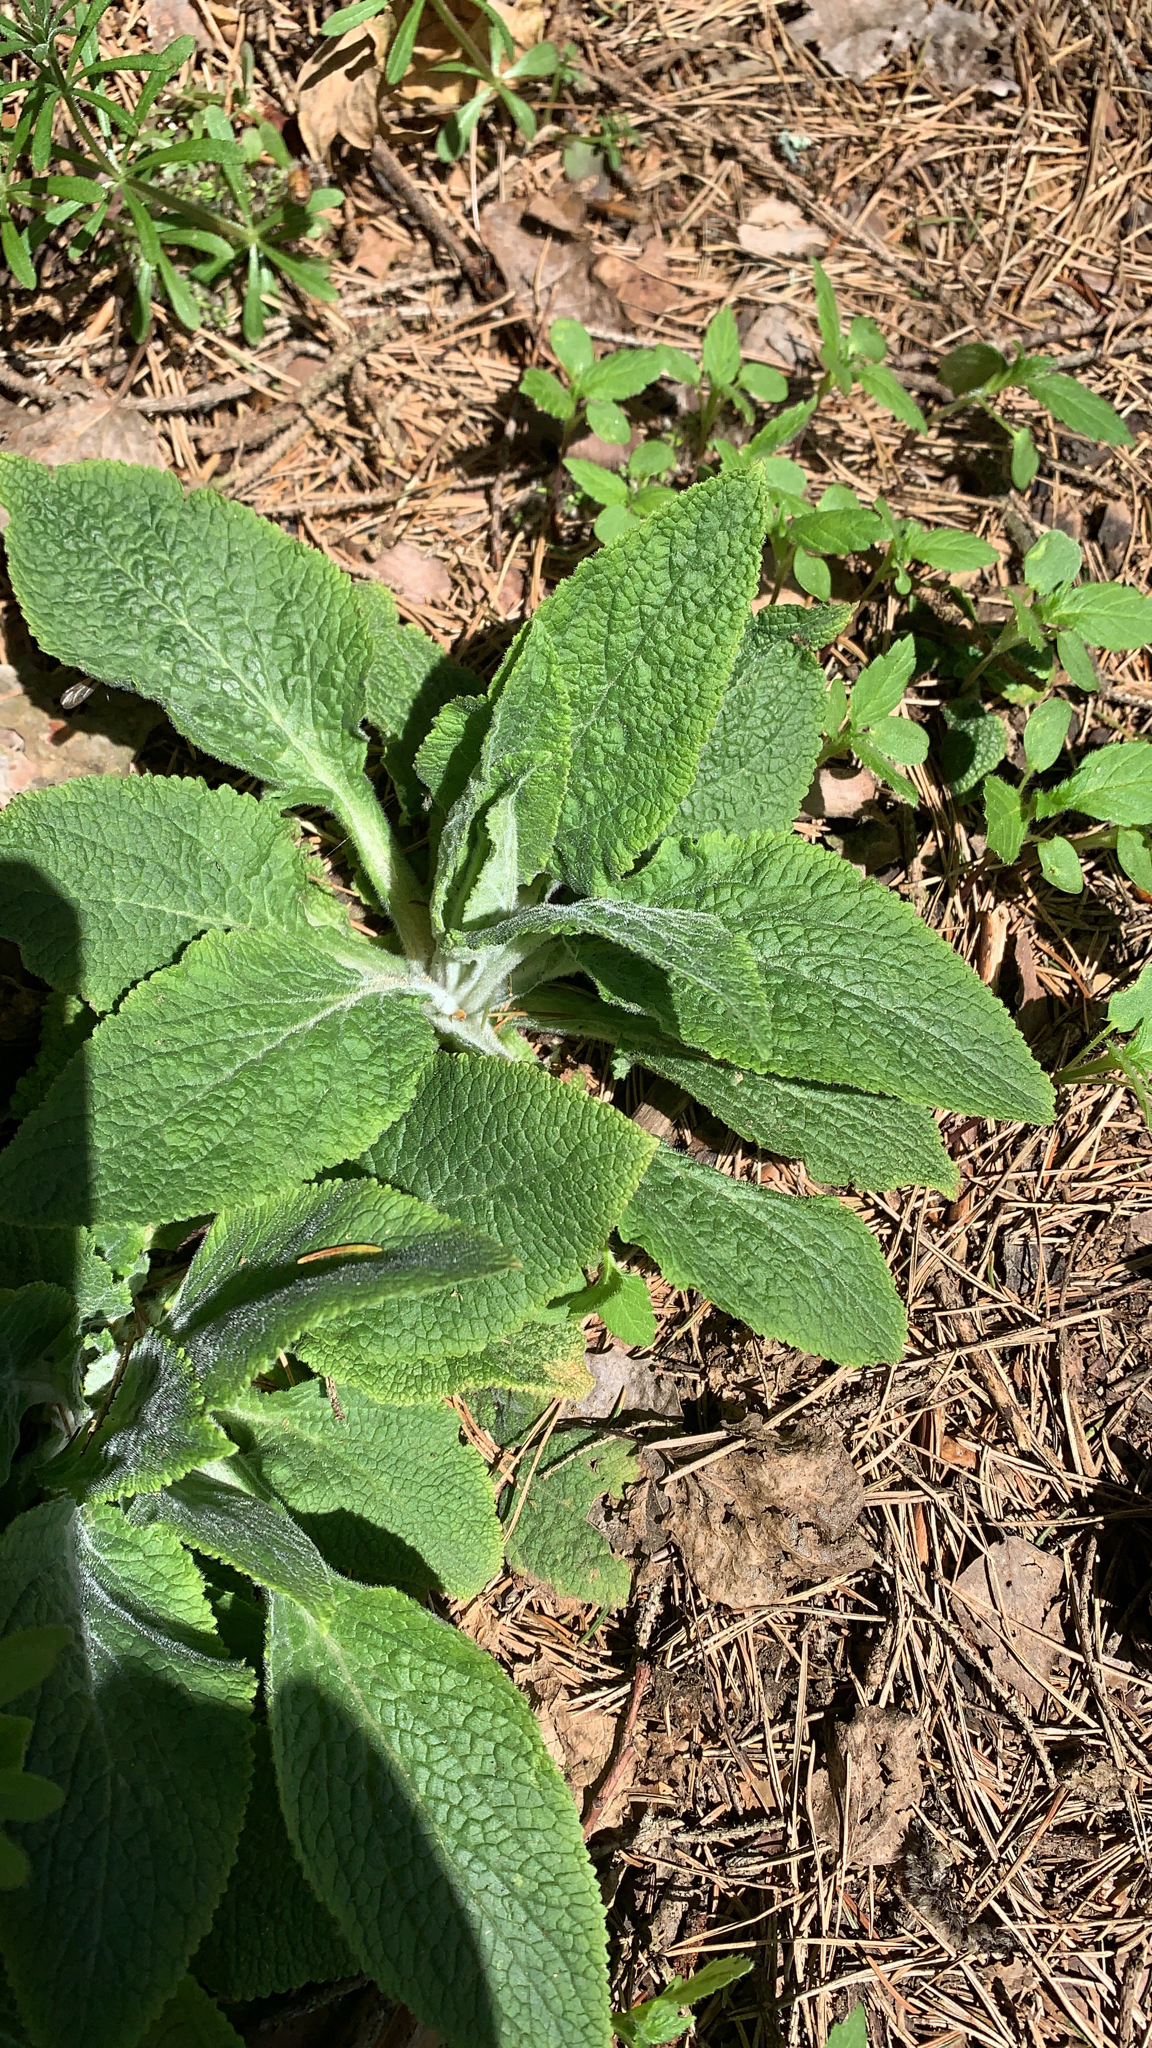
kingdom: Plantae
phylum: Tracheophyta
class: Magnoliopsida
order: Lamiales
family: Plantaginaceae
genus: Digitalis
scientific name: Digitalis purpurea
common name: Foxglove
